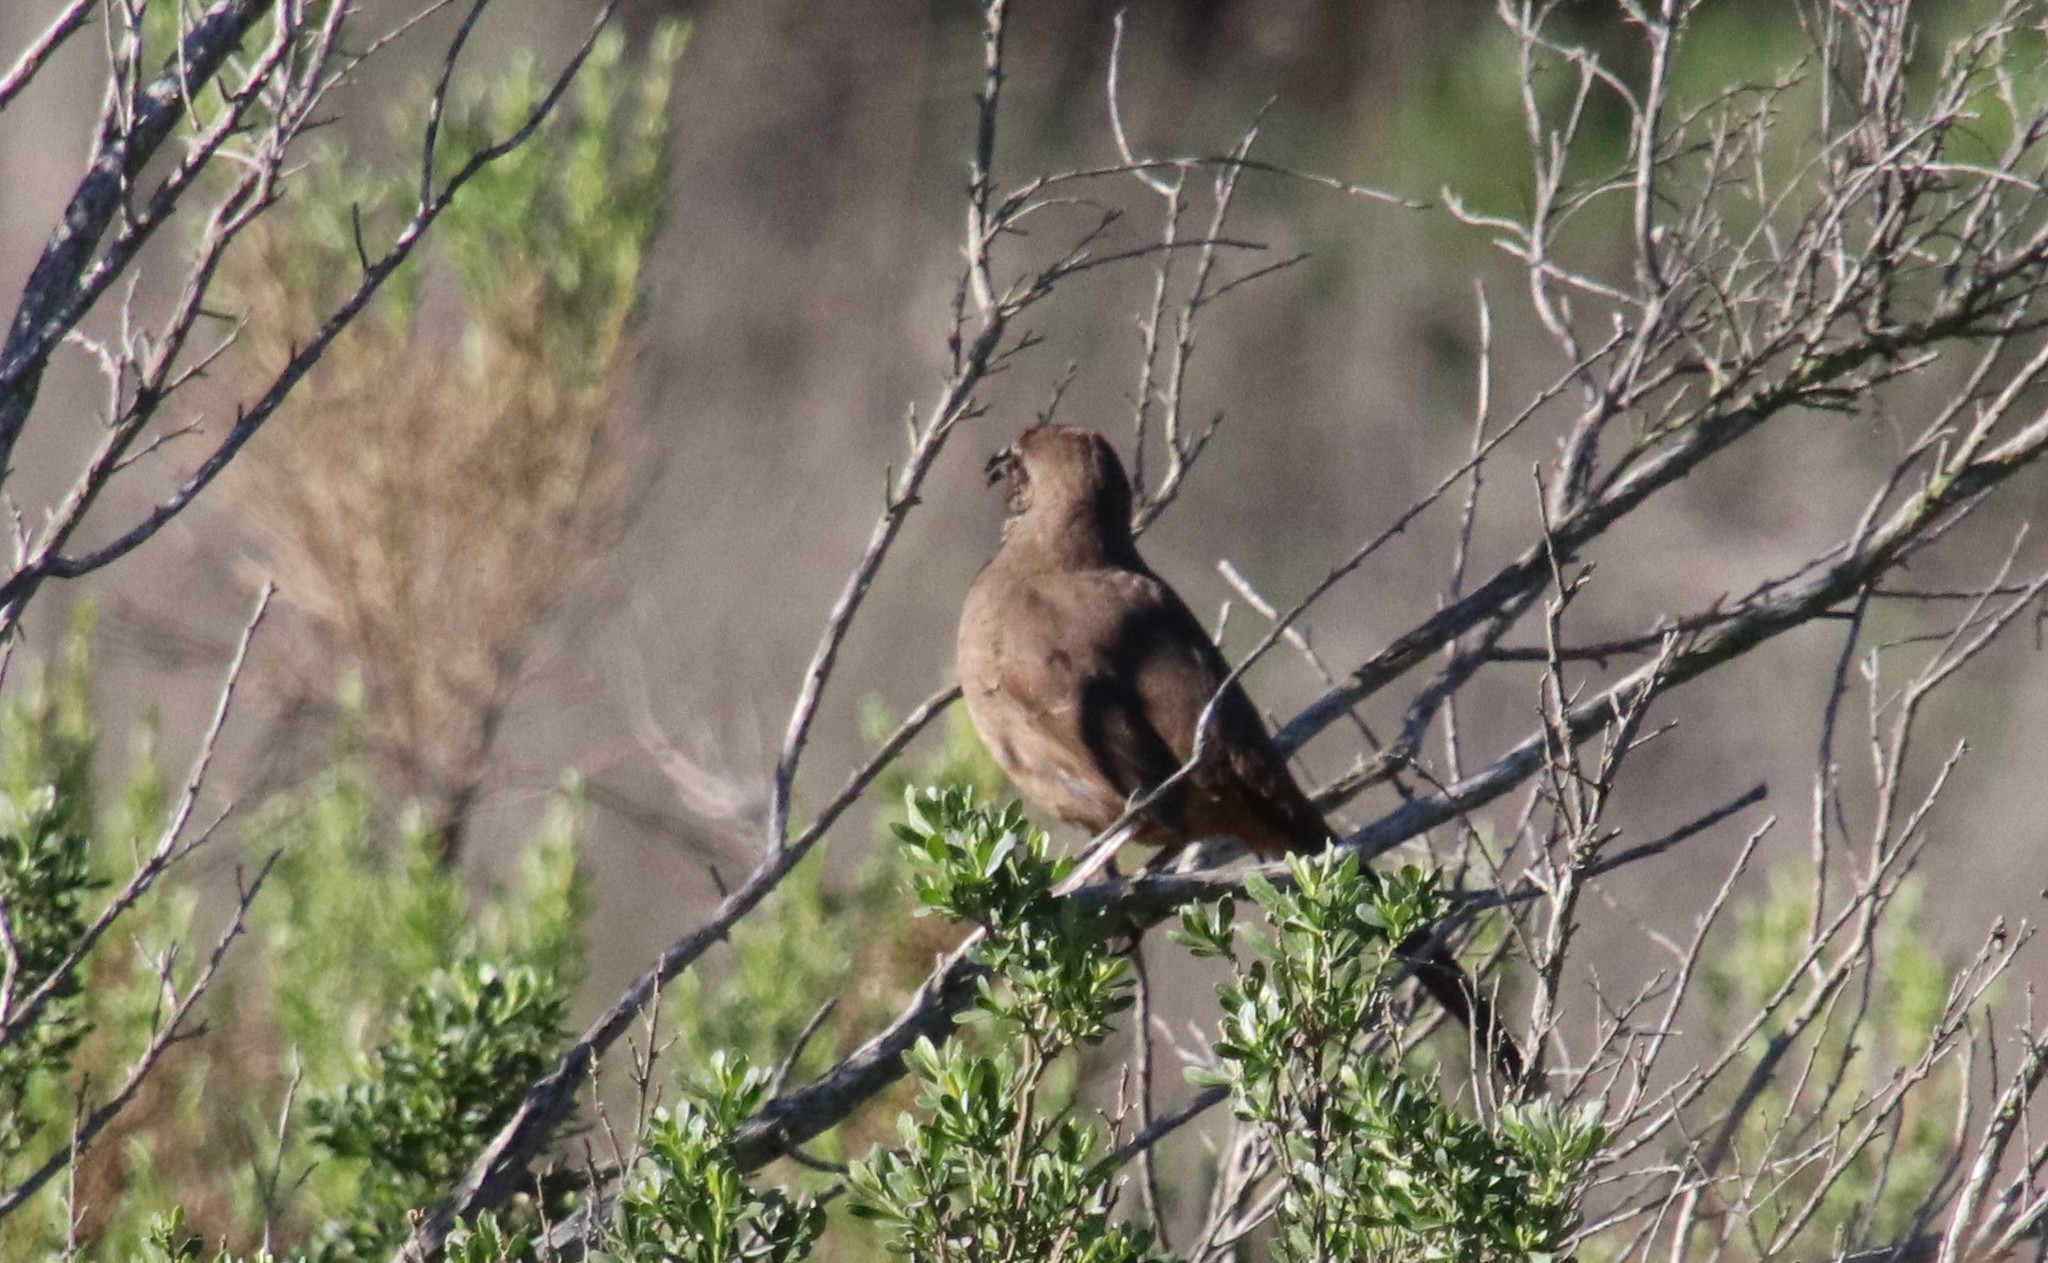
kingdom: Animalia
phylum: Chordata
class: Aves
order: Passeriformes
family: Mimidae
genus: Toxostoma
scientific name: Toxostoma redivivum
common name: California thrasher
